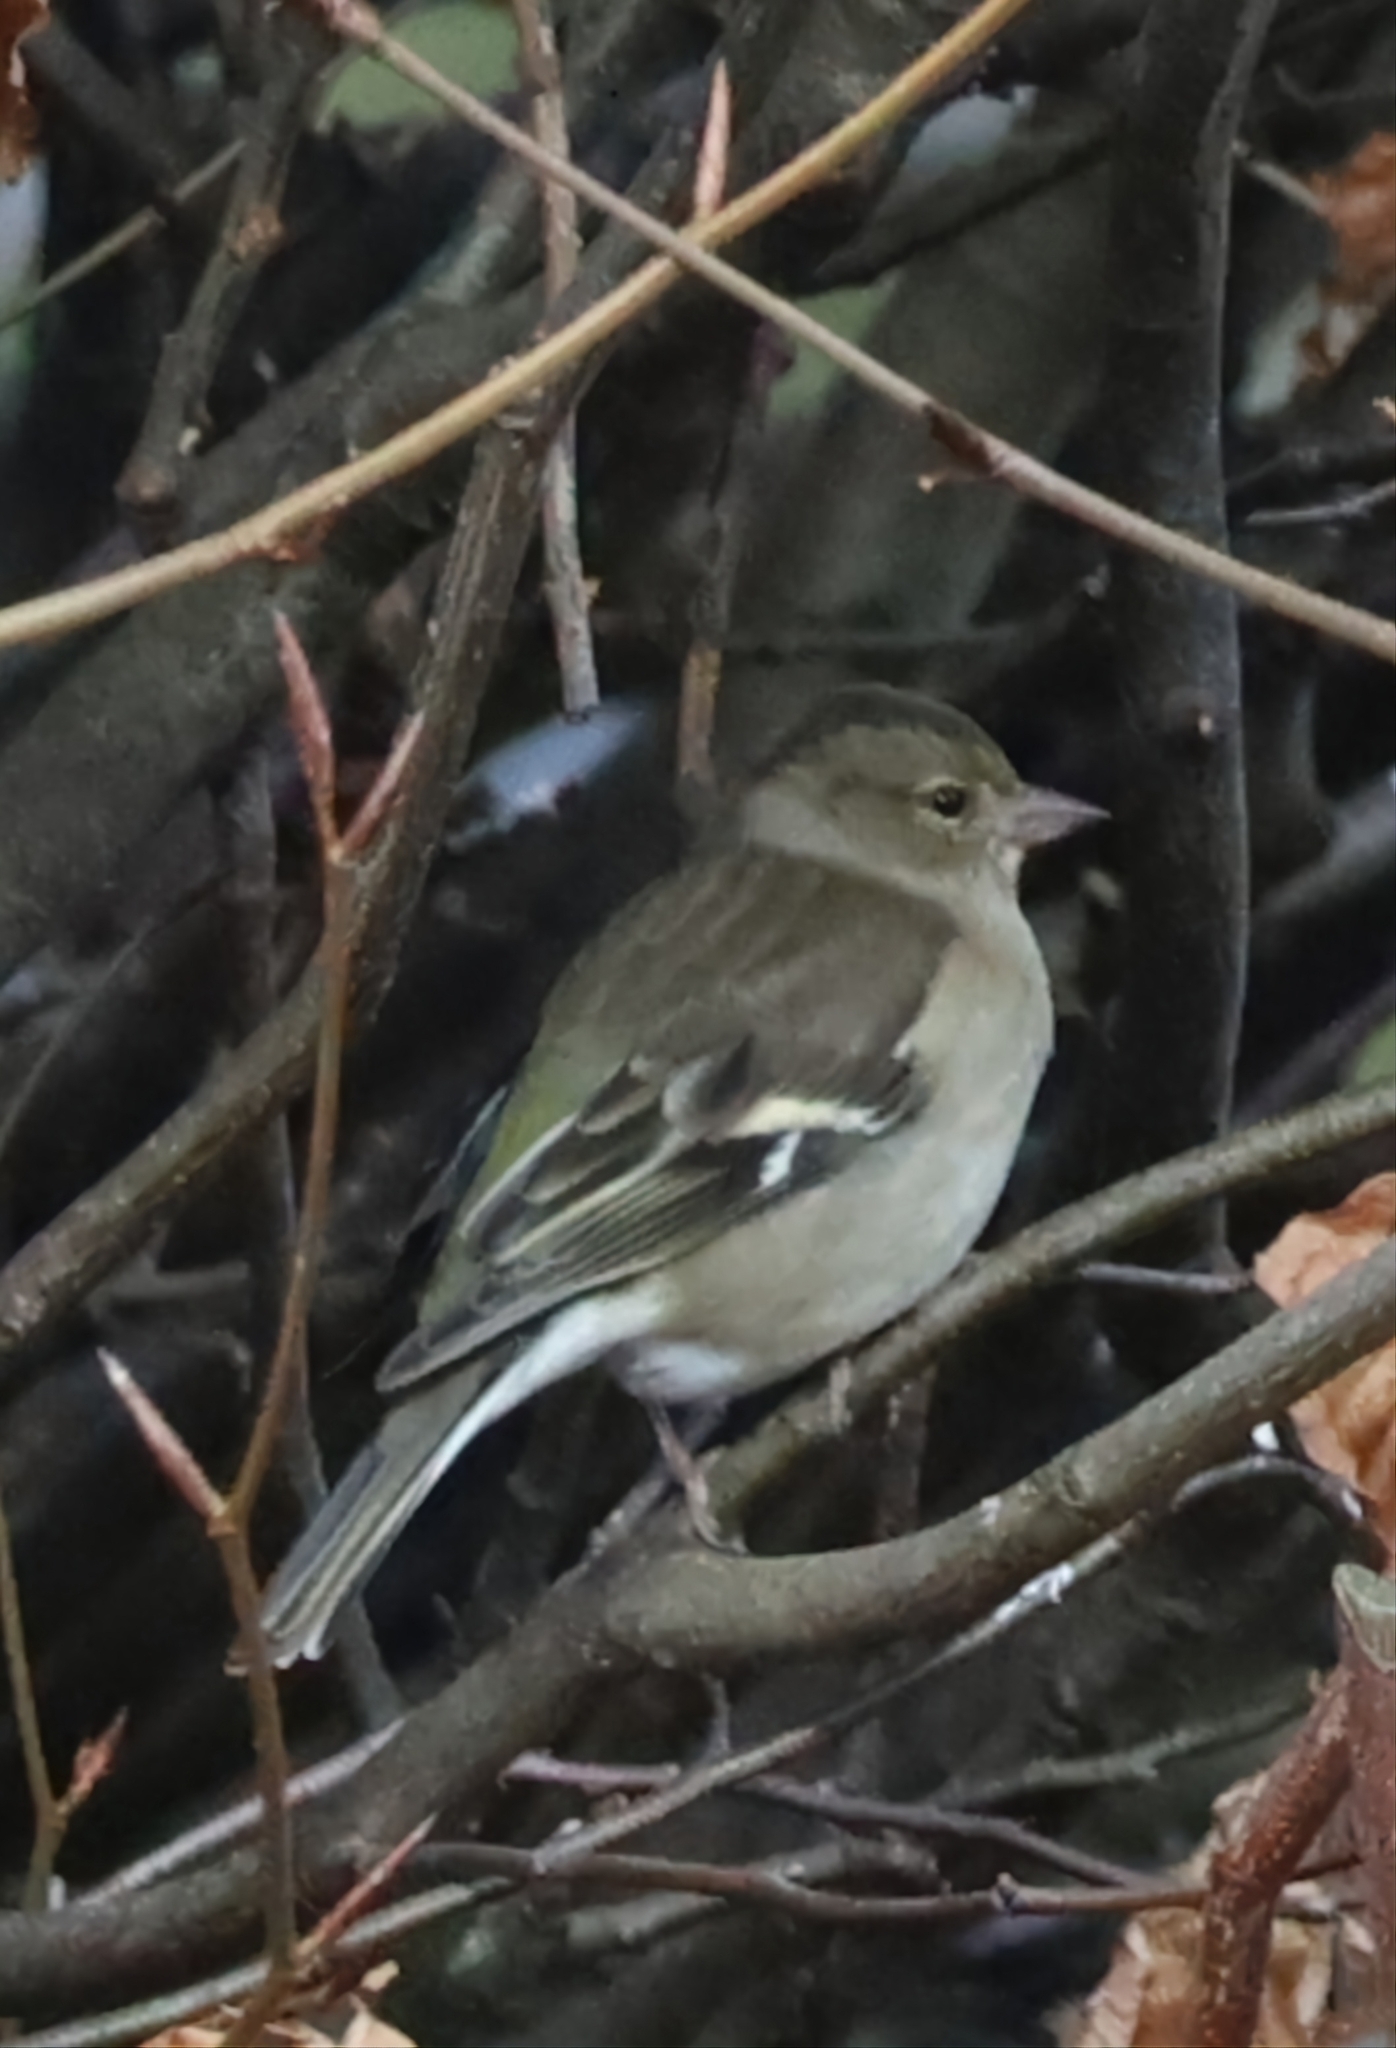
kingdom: Animalia
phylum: Chordata
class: Aves
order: Passeriformes
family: Fringillidae
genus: Fringilla
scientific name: Fringilla coelebs
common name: Common chaffinch
